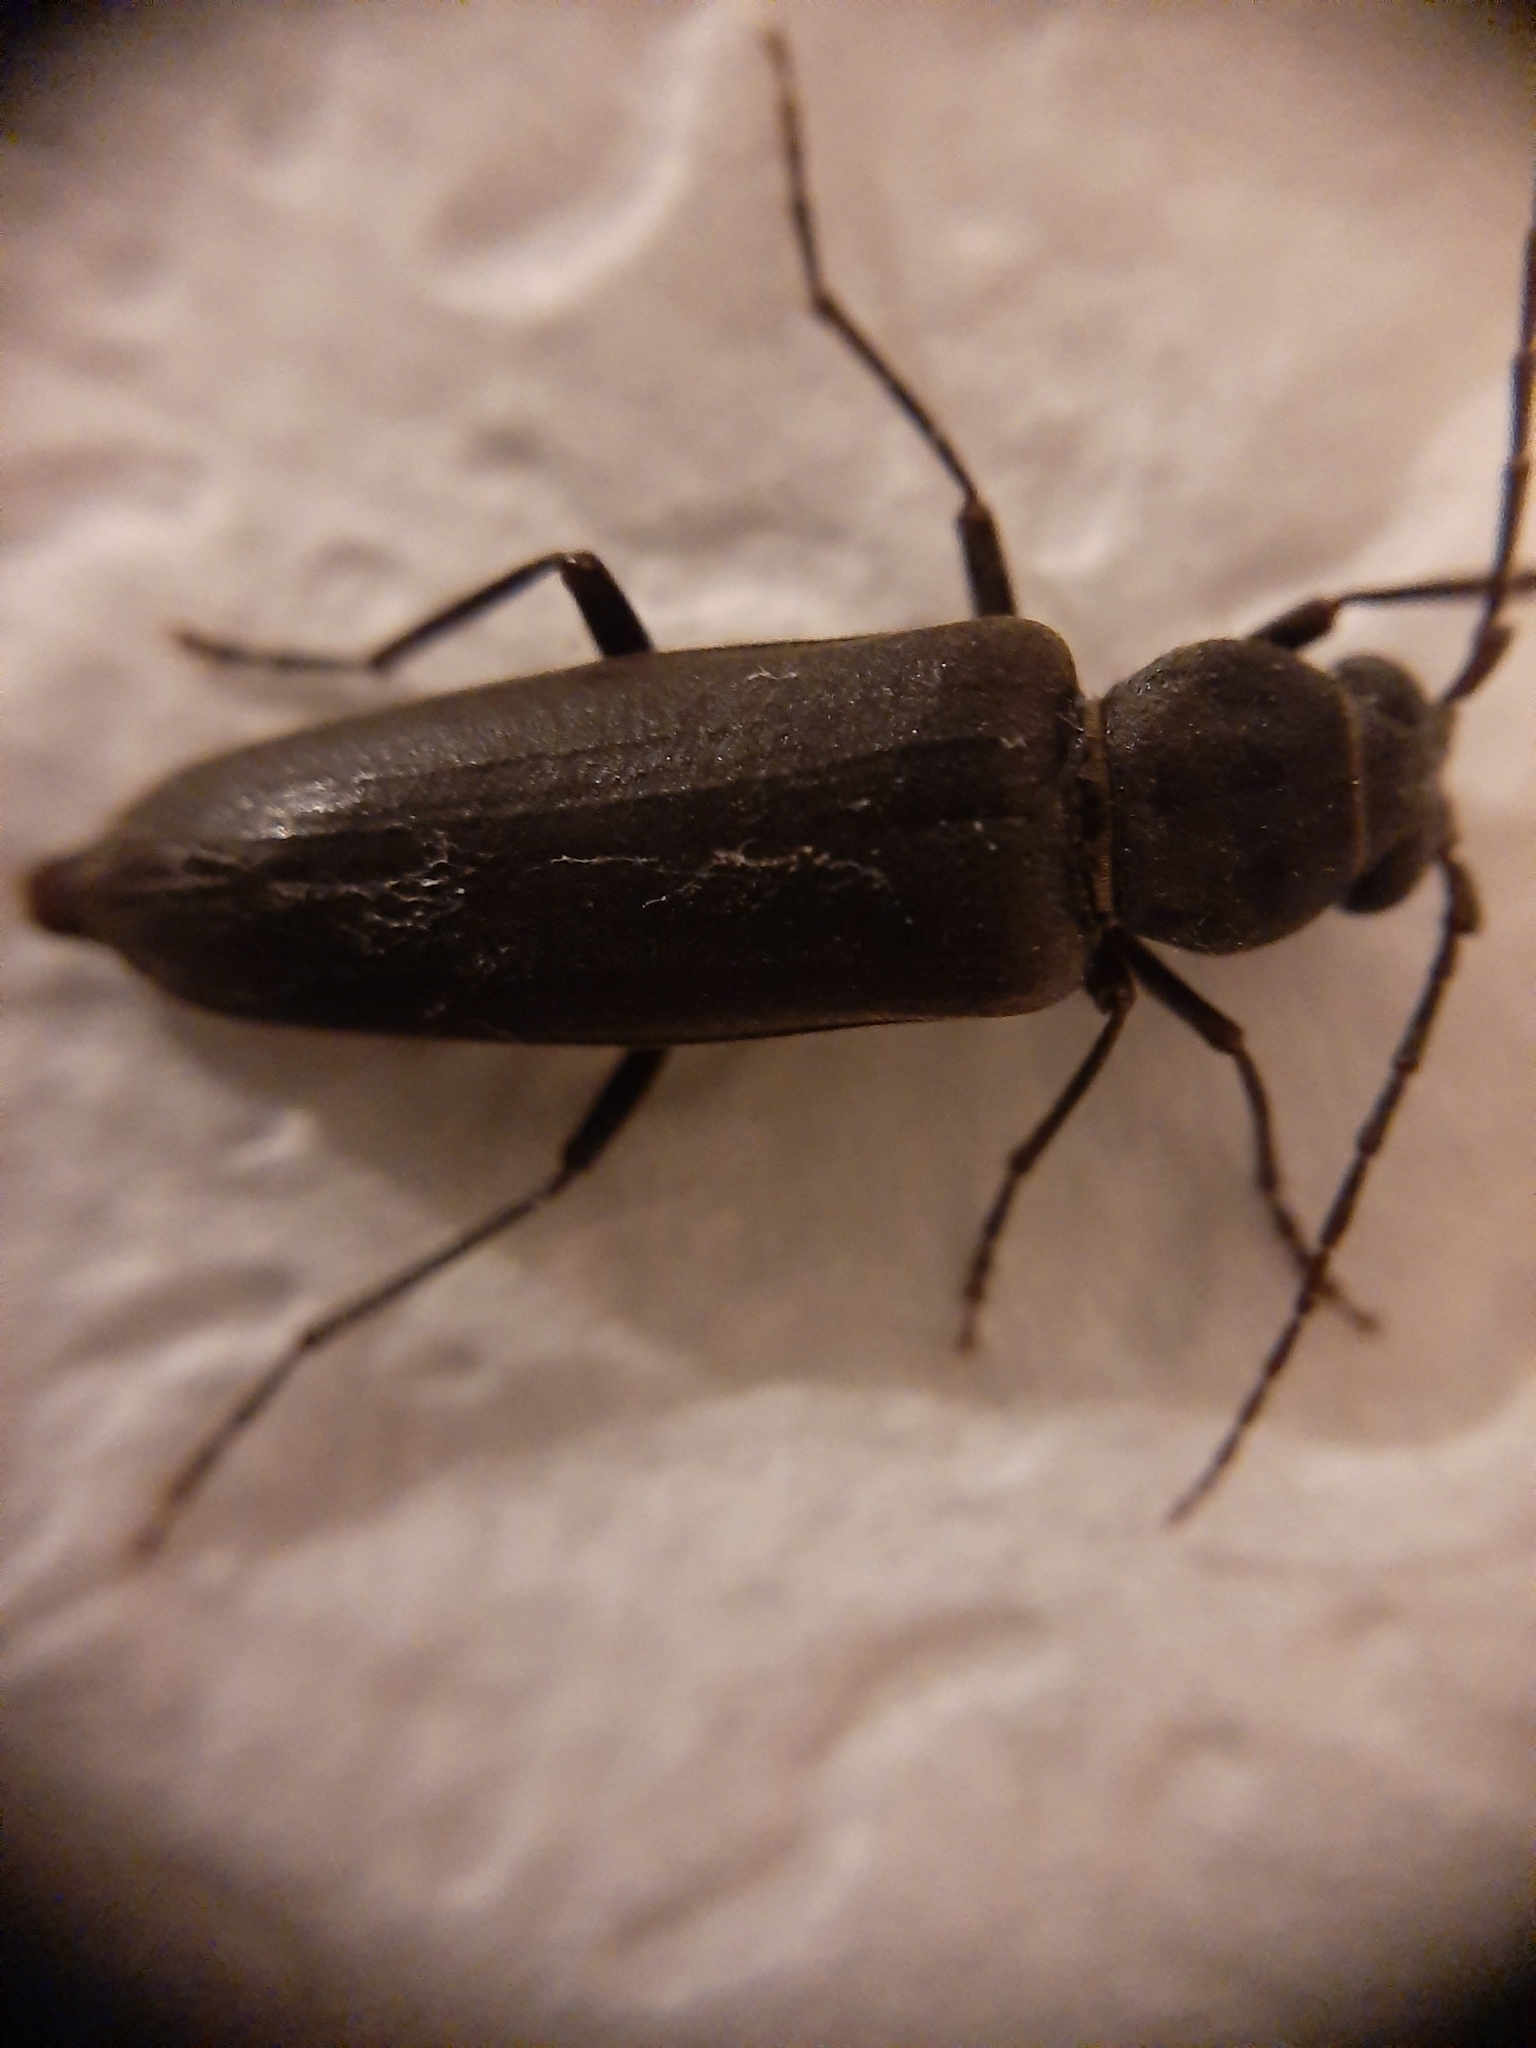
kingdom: Animalia
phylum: Arthropoda
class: Insecta
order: Coleoptera
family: Cerambycidae
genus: Arhopalus
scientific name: Arhopalus ferus
